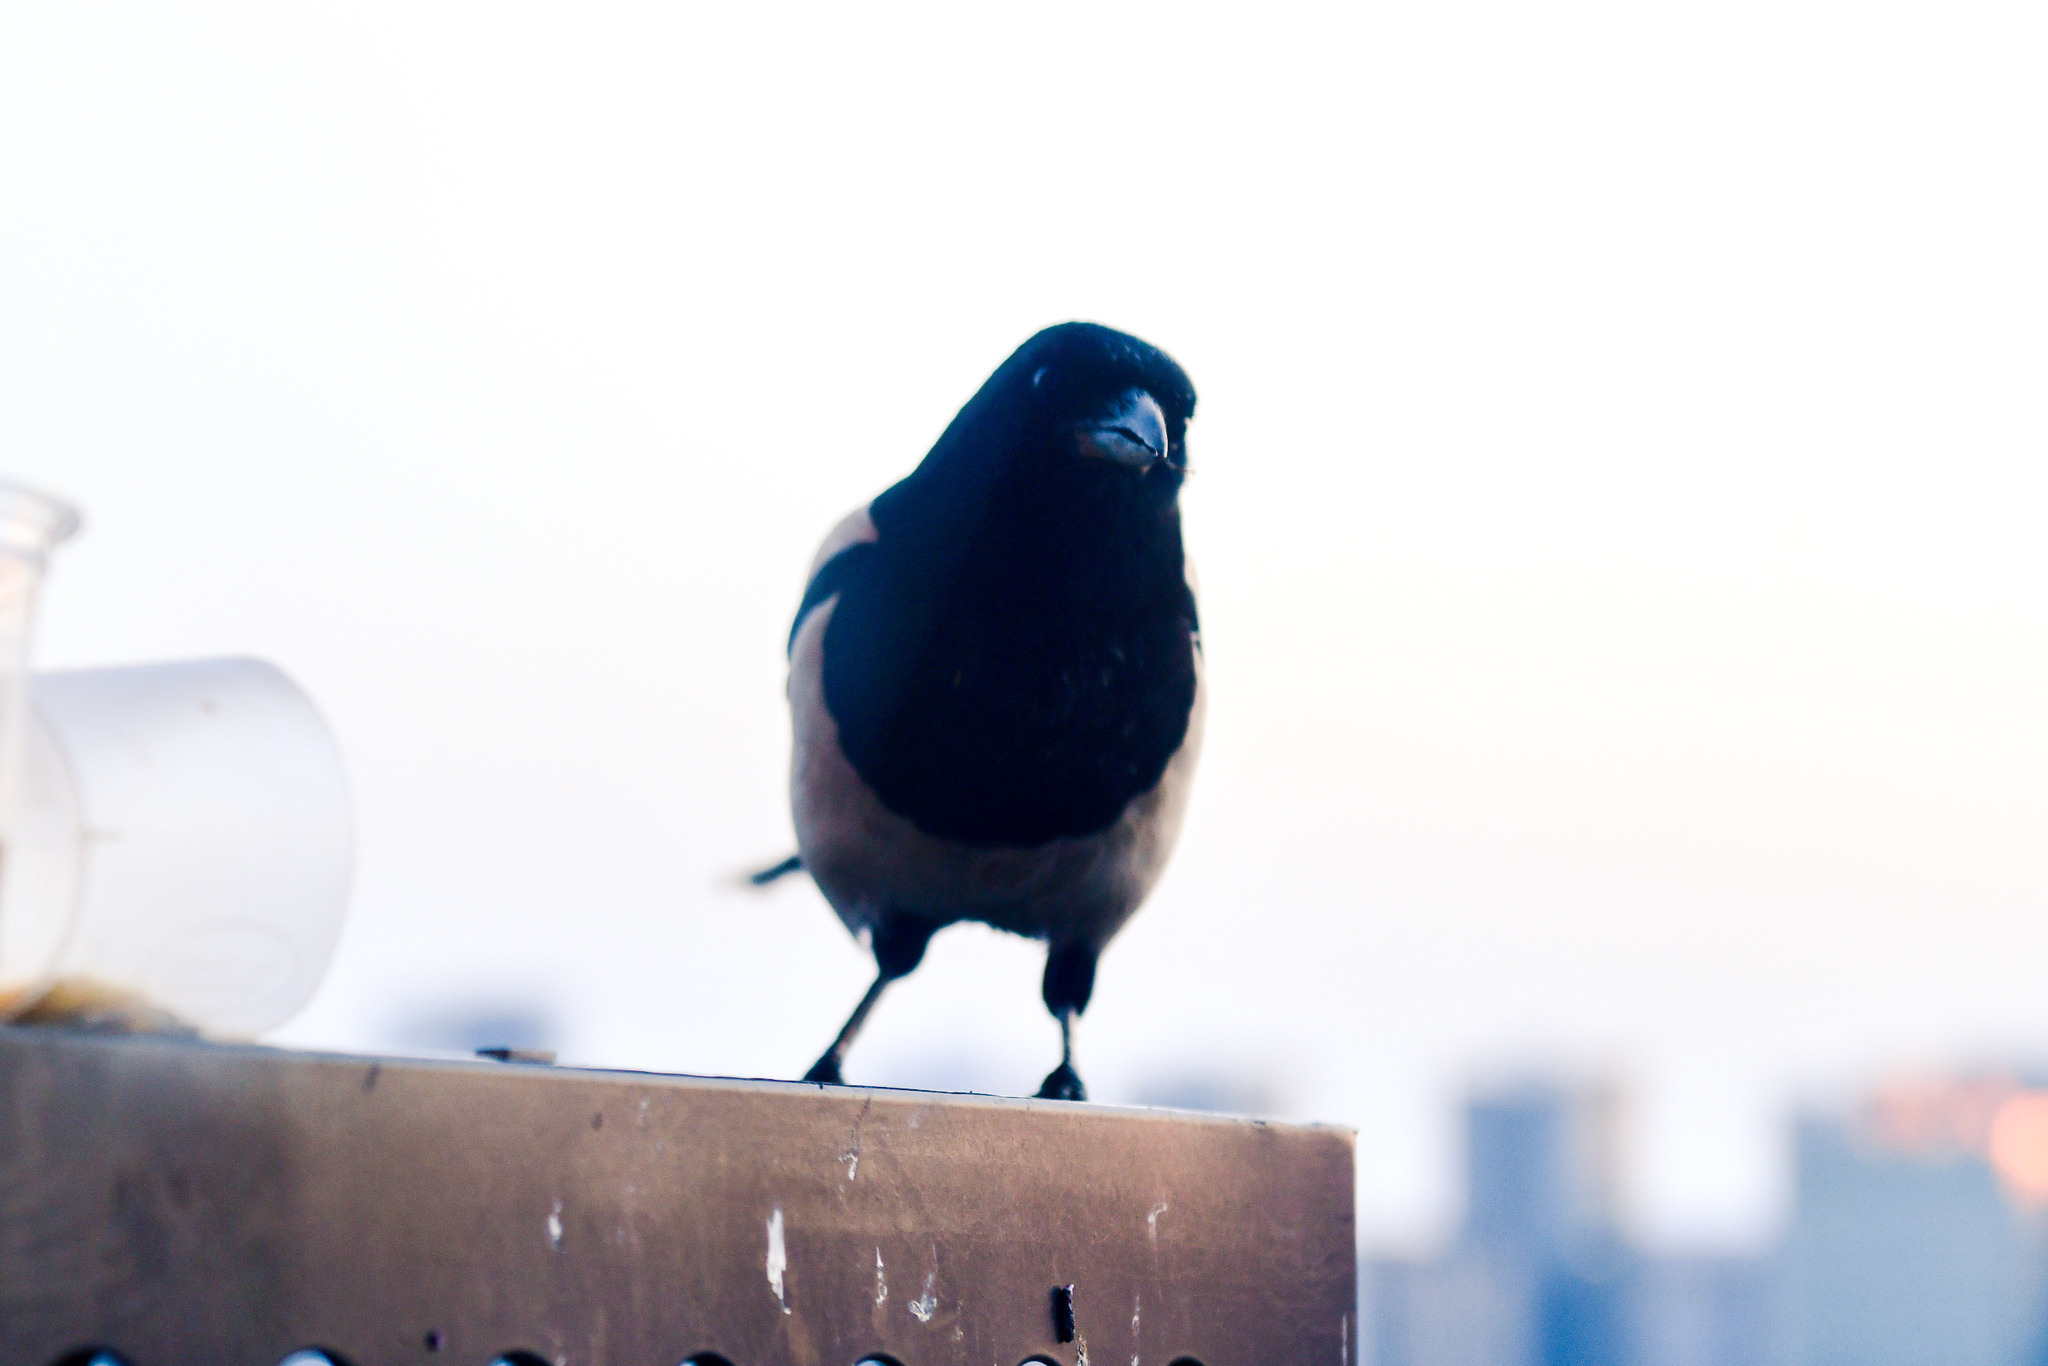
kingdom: Animalia
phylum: Chordata
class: Aves
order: Passeriformes
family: Corvidae
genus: Pica
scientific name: Pica serica
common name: Oriental magpie
